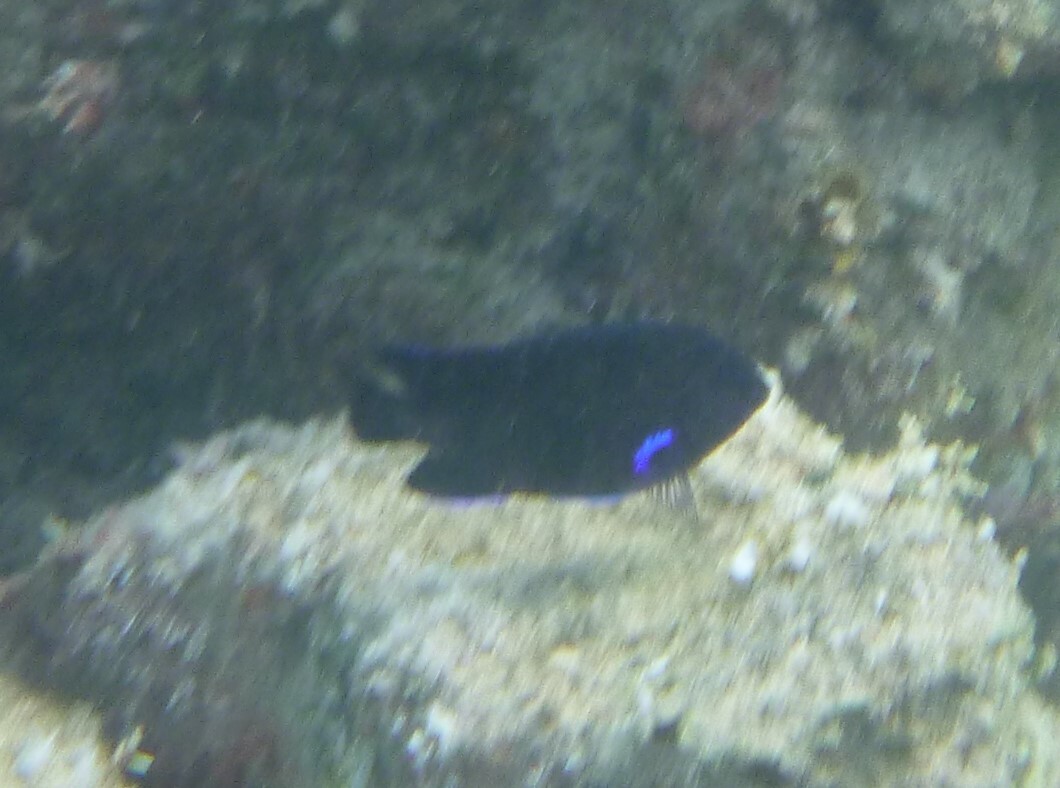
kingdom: Animalia
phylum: Chordata
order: Perciformes
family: Pomacentridae
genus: Similiparma
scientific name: Similiparma lurida
